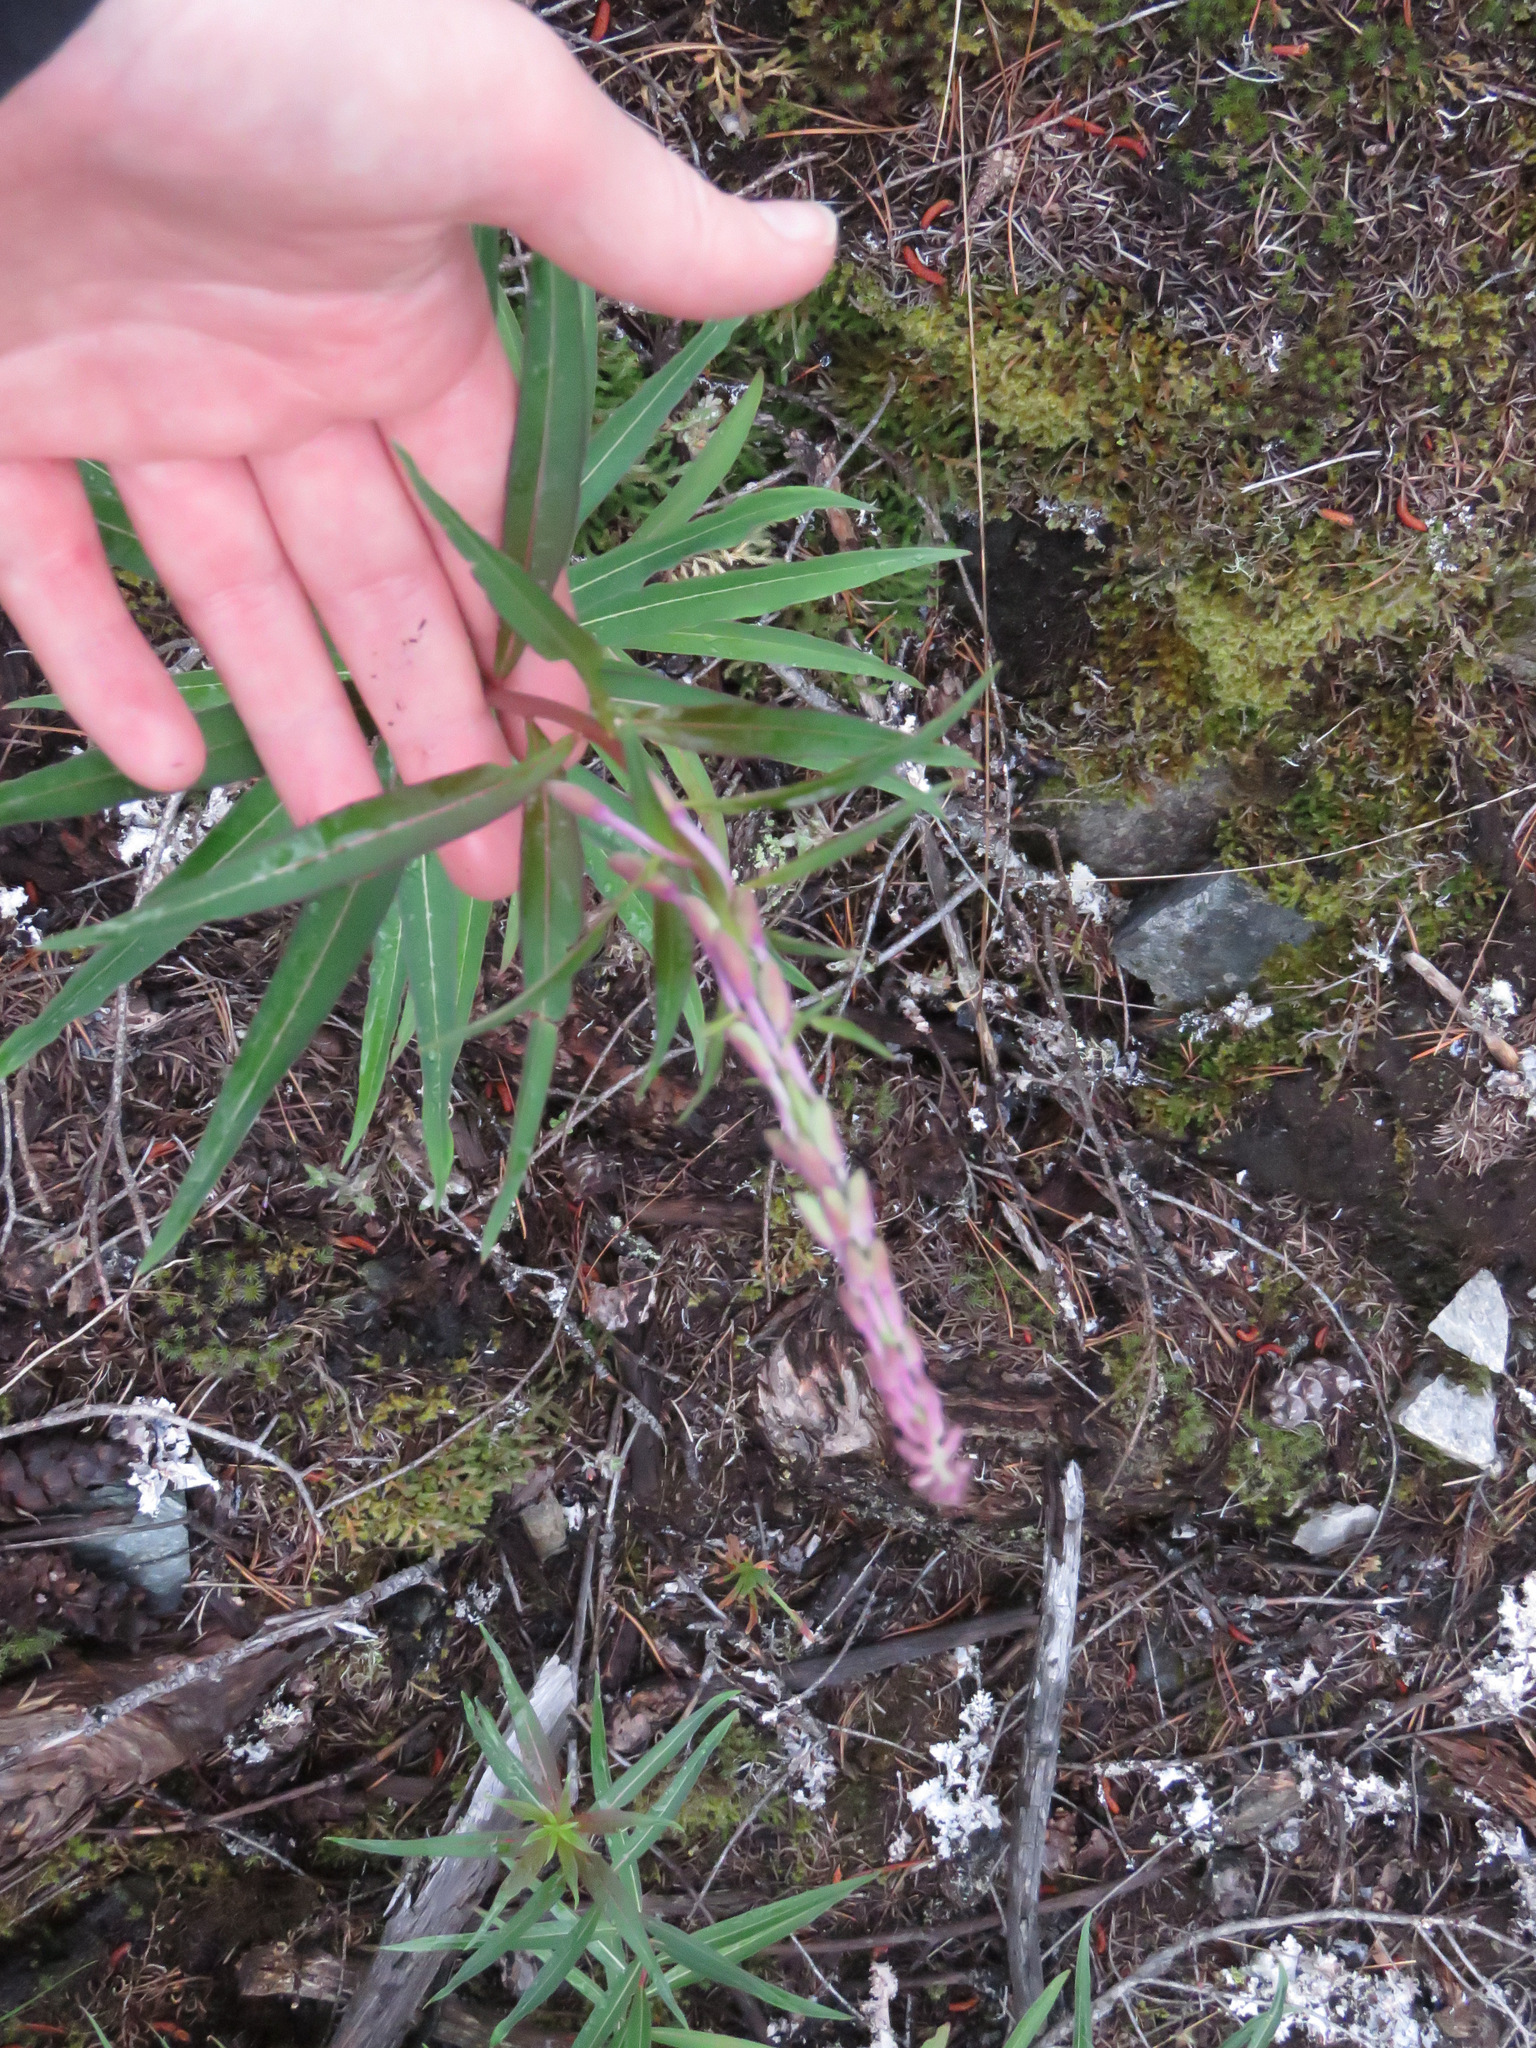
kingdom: Plantae
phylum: Tracheophyta
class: Magnoliopsida
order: Myrtales
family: Onagraceae
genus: Chamaenerion
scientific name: Chamaenerion angustifolium
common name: Fireweed
